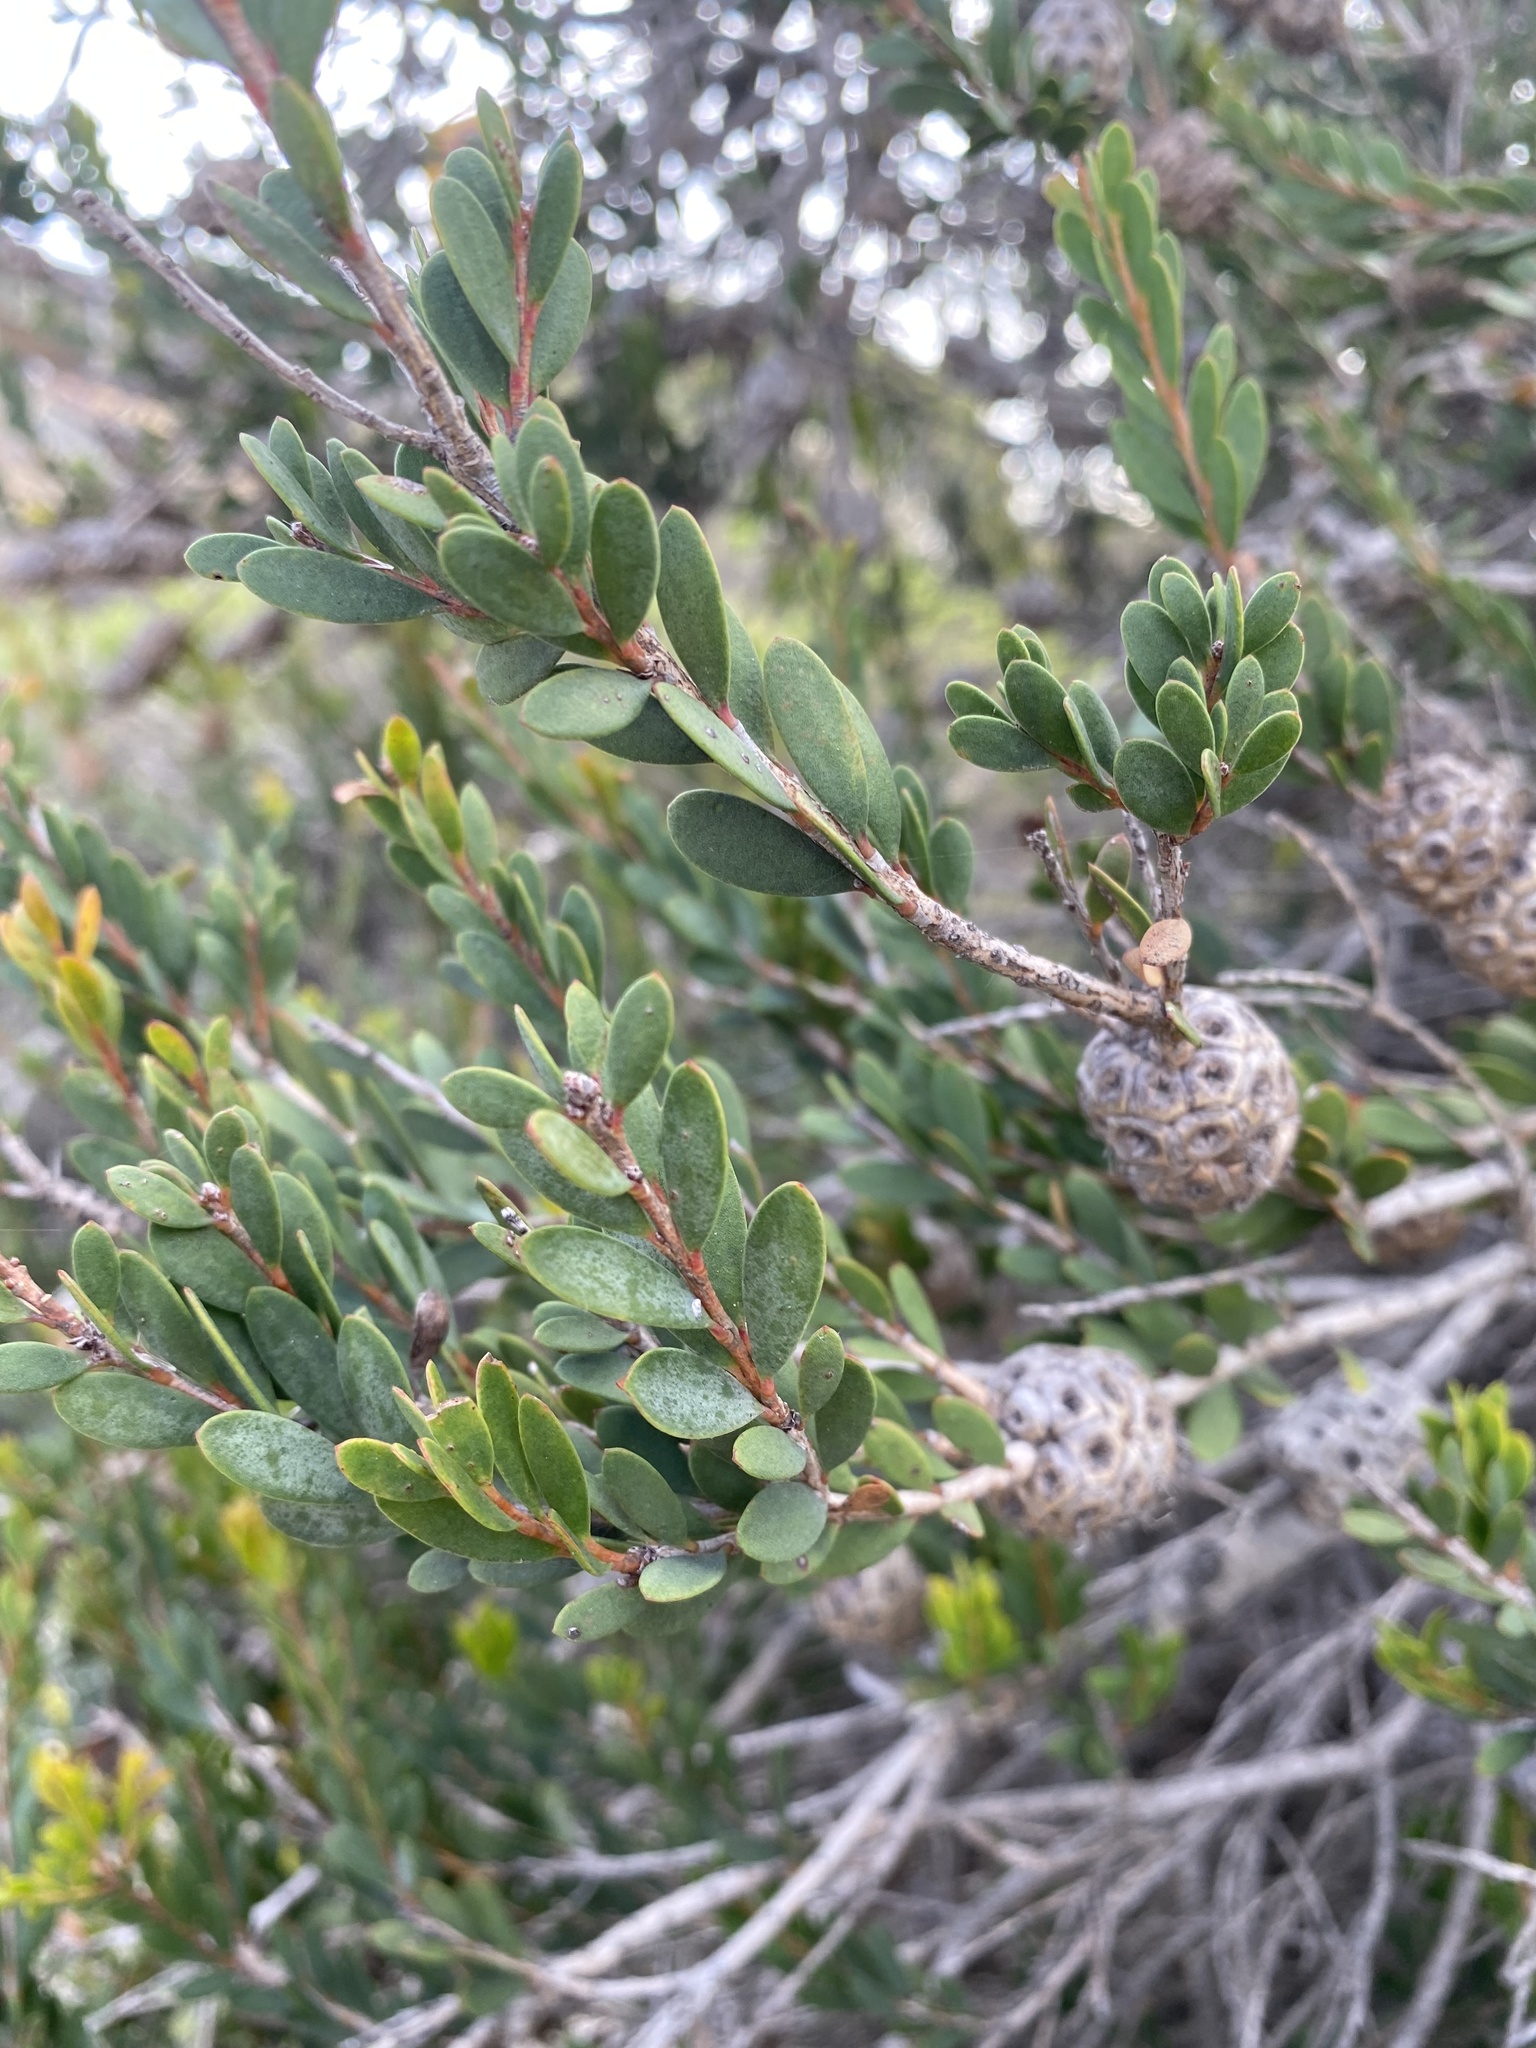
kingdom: Plantae
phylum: Tracheophyta
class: Magnoliopsida
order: Myrtales
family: Myrtaceae
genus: Melaleuca
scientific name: Melaleuca nesophila
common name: Mauve honey myrtle
